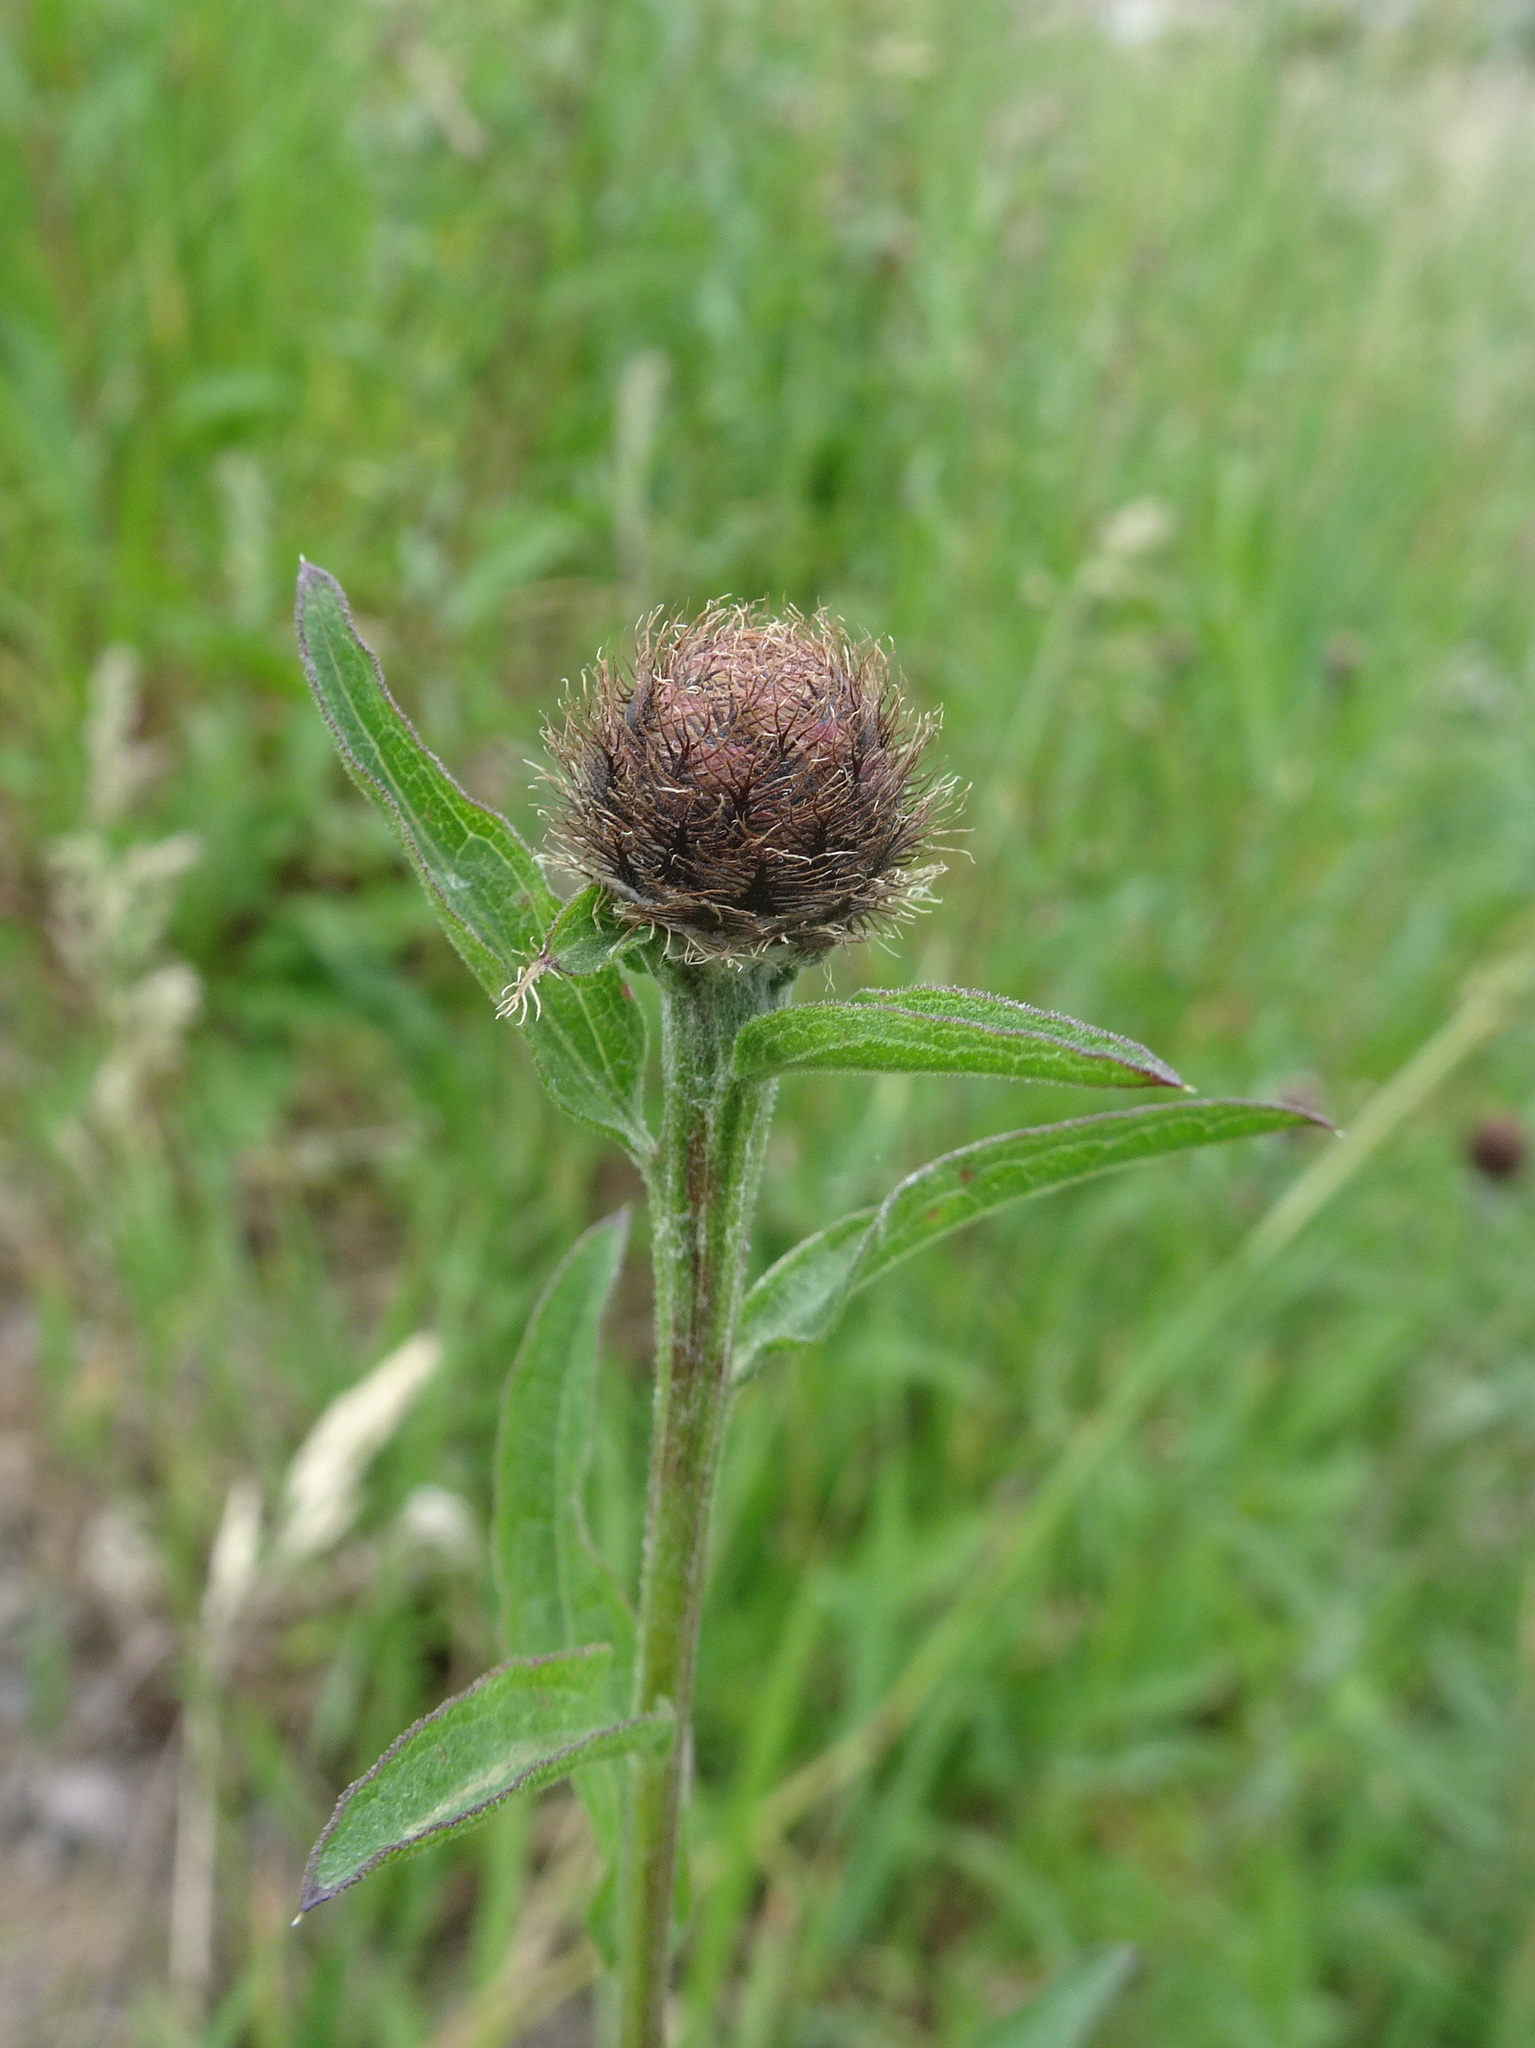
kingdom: Plantae
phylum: Tracheophyta
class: Magnoliopsida
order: Asterales
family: Asteraceae
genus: Centaurea
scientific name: Centaurea nigra
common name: Lesser knapweed
